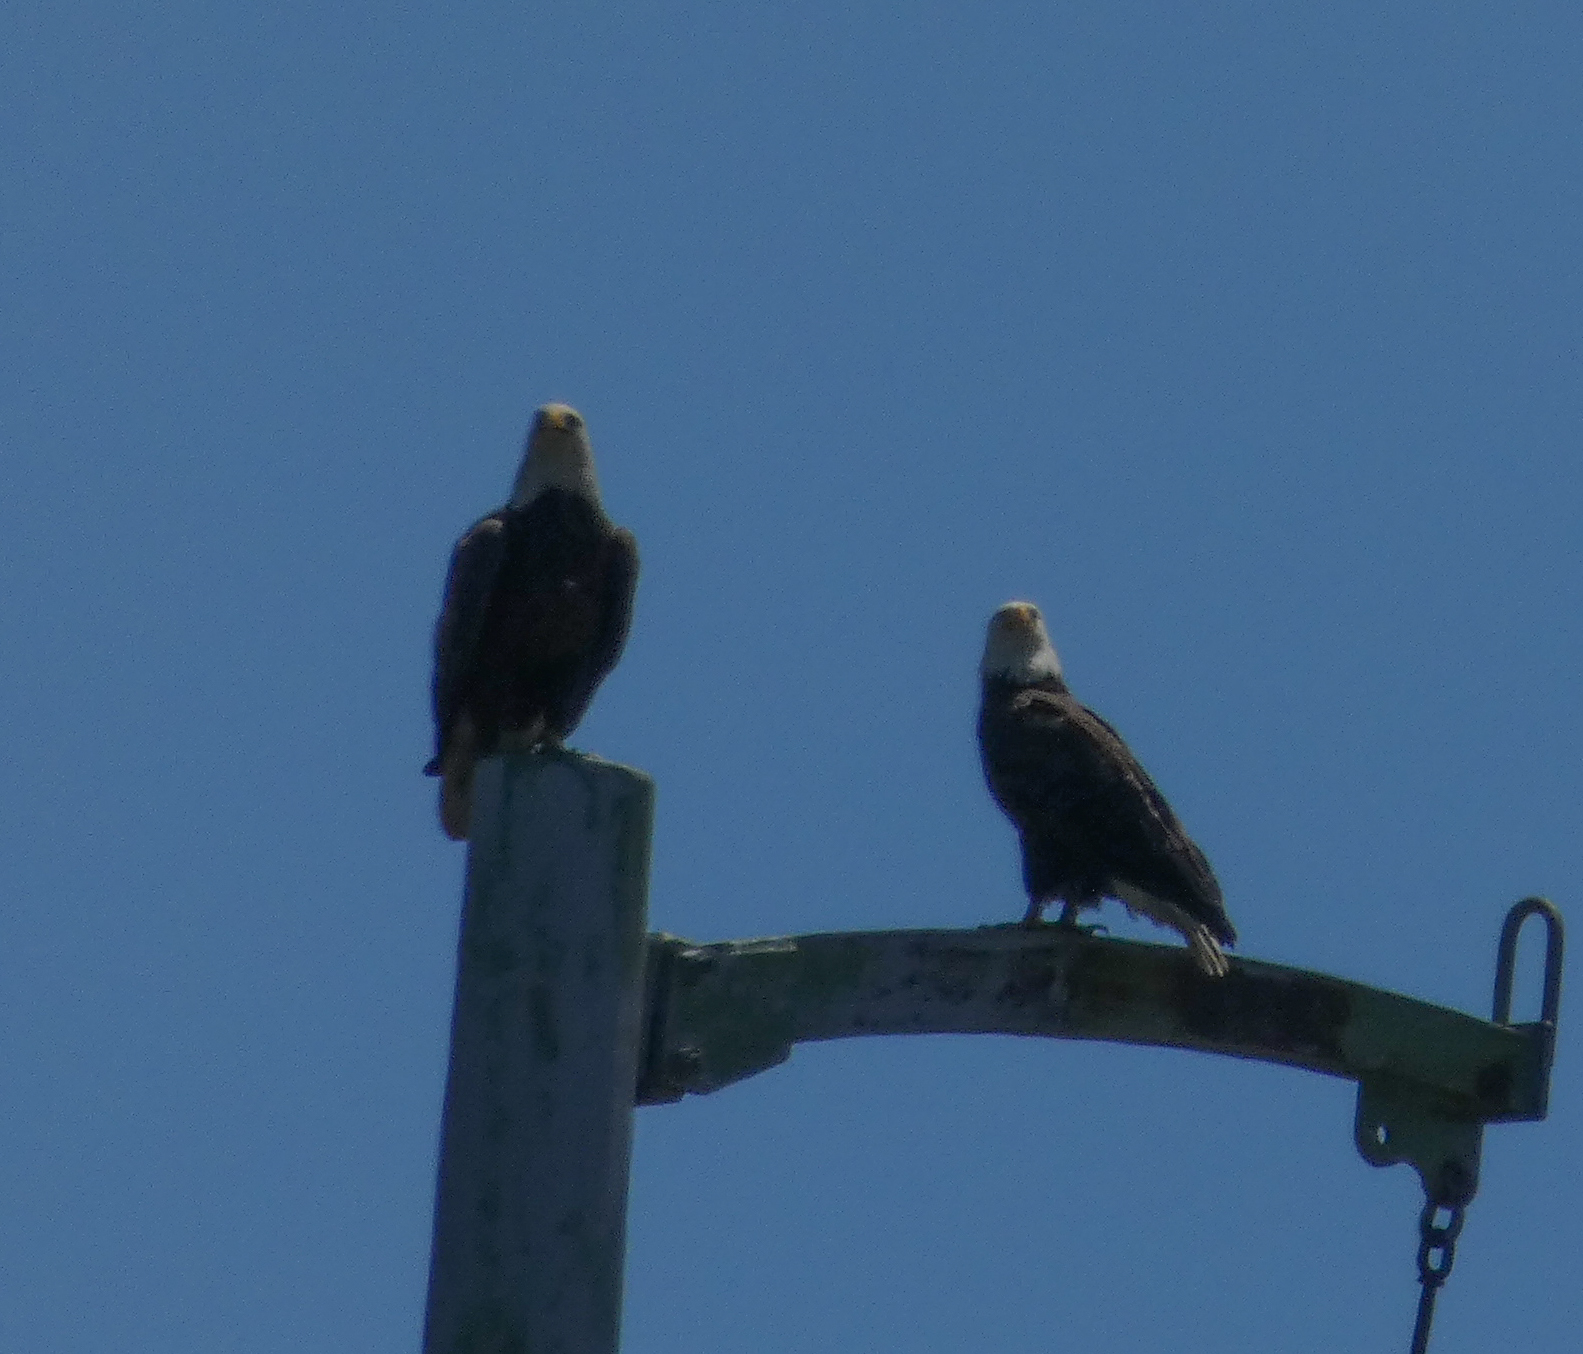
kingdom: Animalia
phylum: Chordata
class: Aves
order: Accipitriformes
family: Accipitridae
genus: Haliaeetus
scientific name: Haliaeetus leucocephalus
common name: Bald eagle
